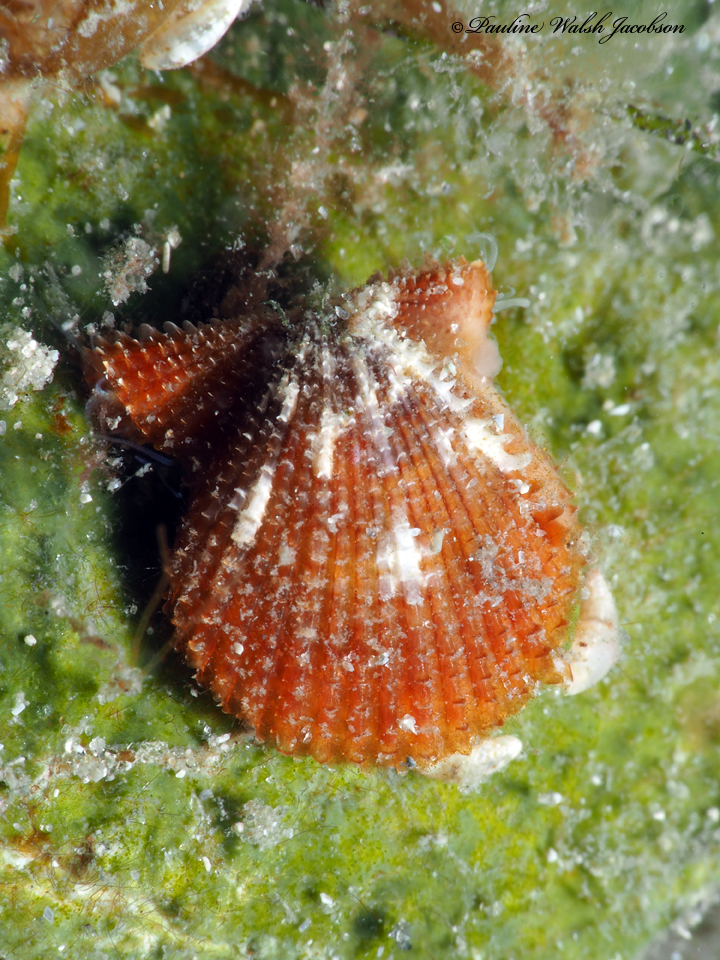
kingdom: Animalia
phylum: Mollusca
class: Bivalvia
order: Pectinida
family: Pectinidae
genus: Lindapecten
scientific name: Lindapecten muscosus
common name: Rough scallop
